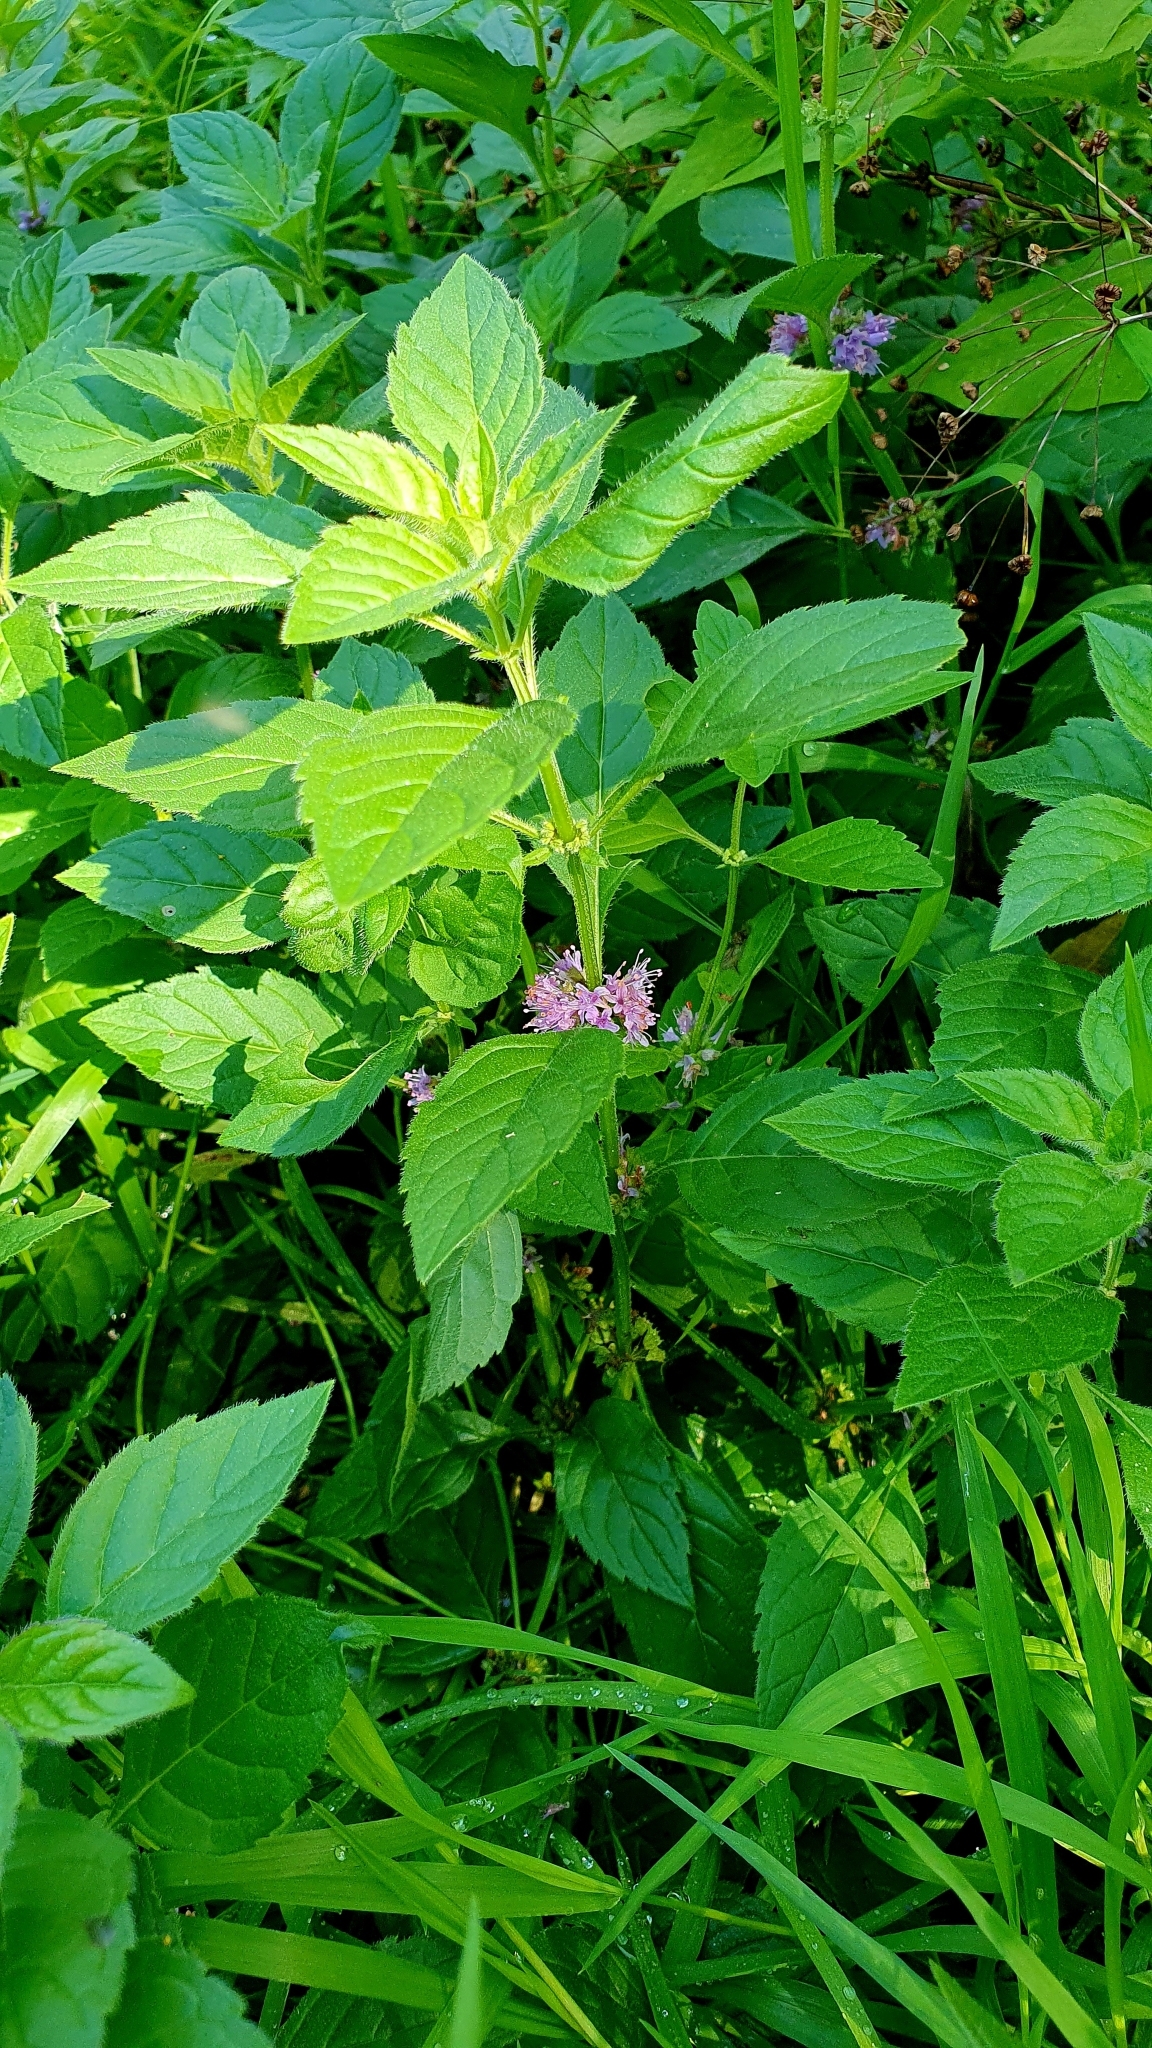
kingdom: Plantae
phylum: Tracheophyta
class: Magnoliopsida
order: Lamiales
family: Lamiaceae
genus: Mentha
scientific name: Mentha arvensis
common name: Corn mint
